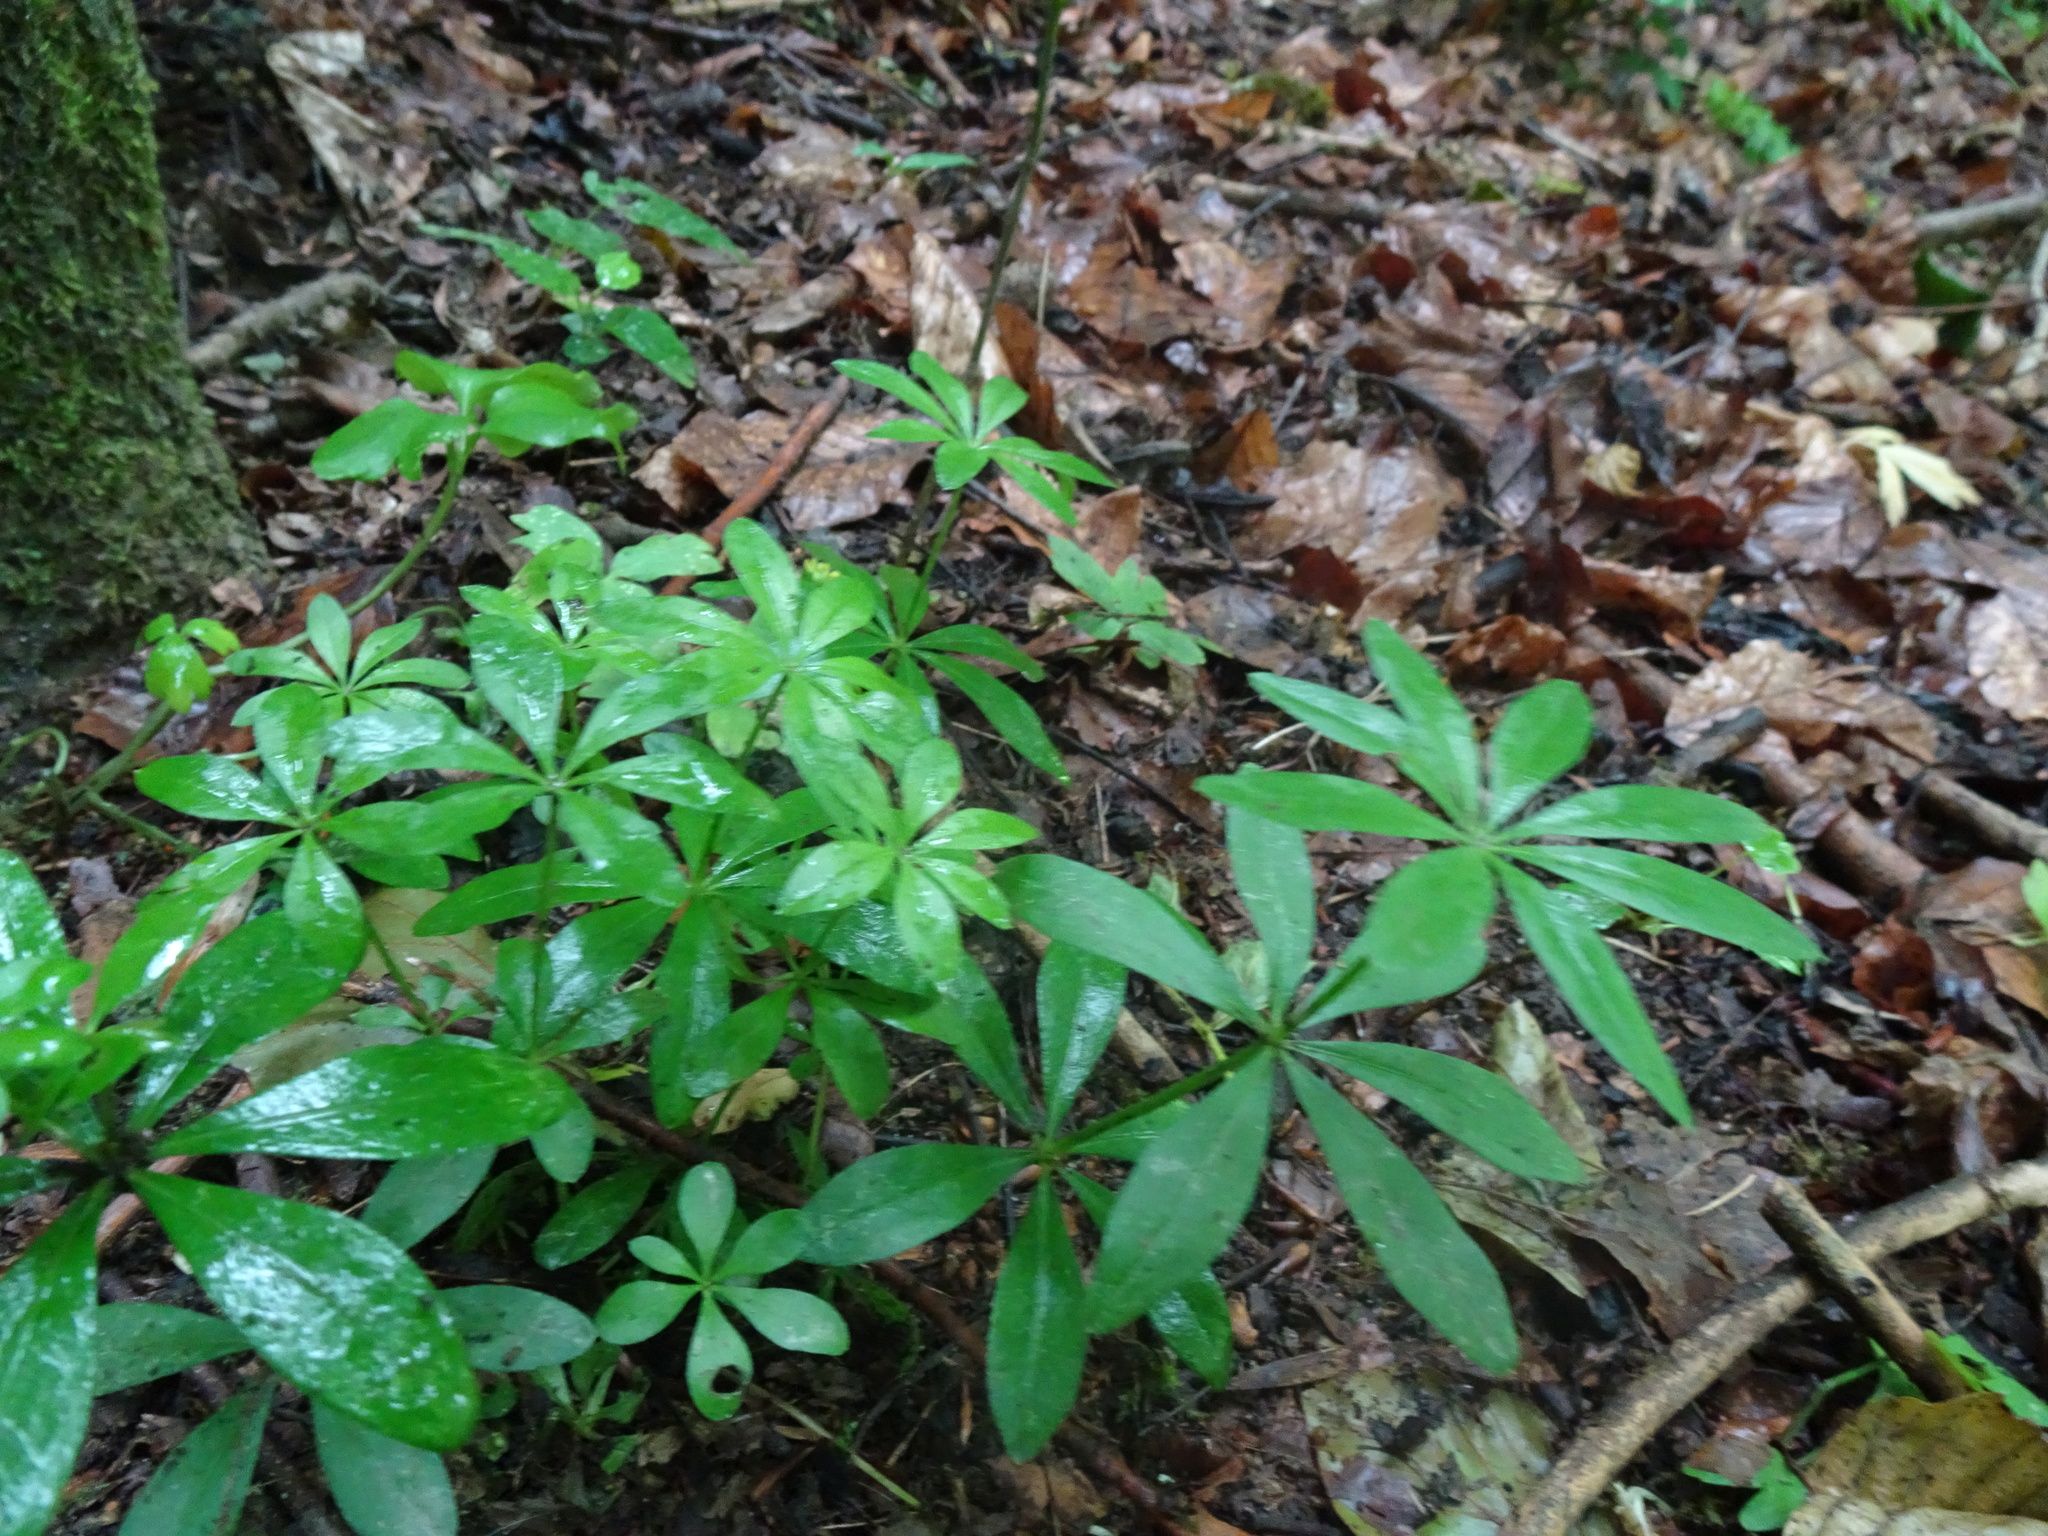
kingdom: Plantae
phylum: Tracheophyta
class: Magnoliopsida
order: Gentianales
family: Rubiaceae
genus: Galium
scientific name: Galium odoratum
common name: Sweet woodruff
